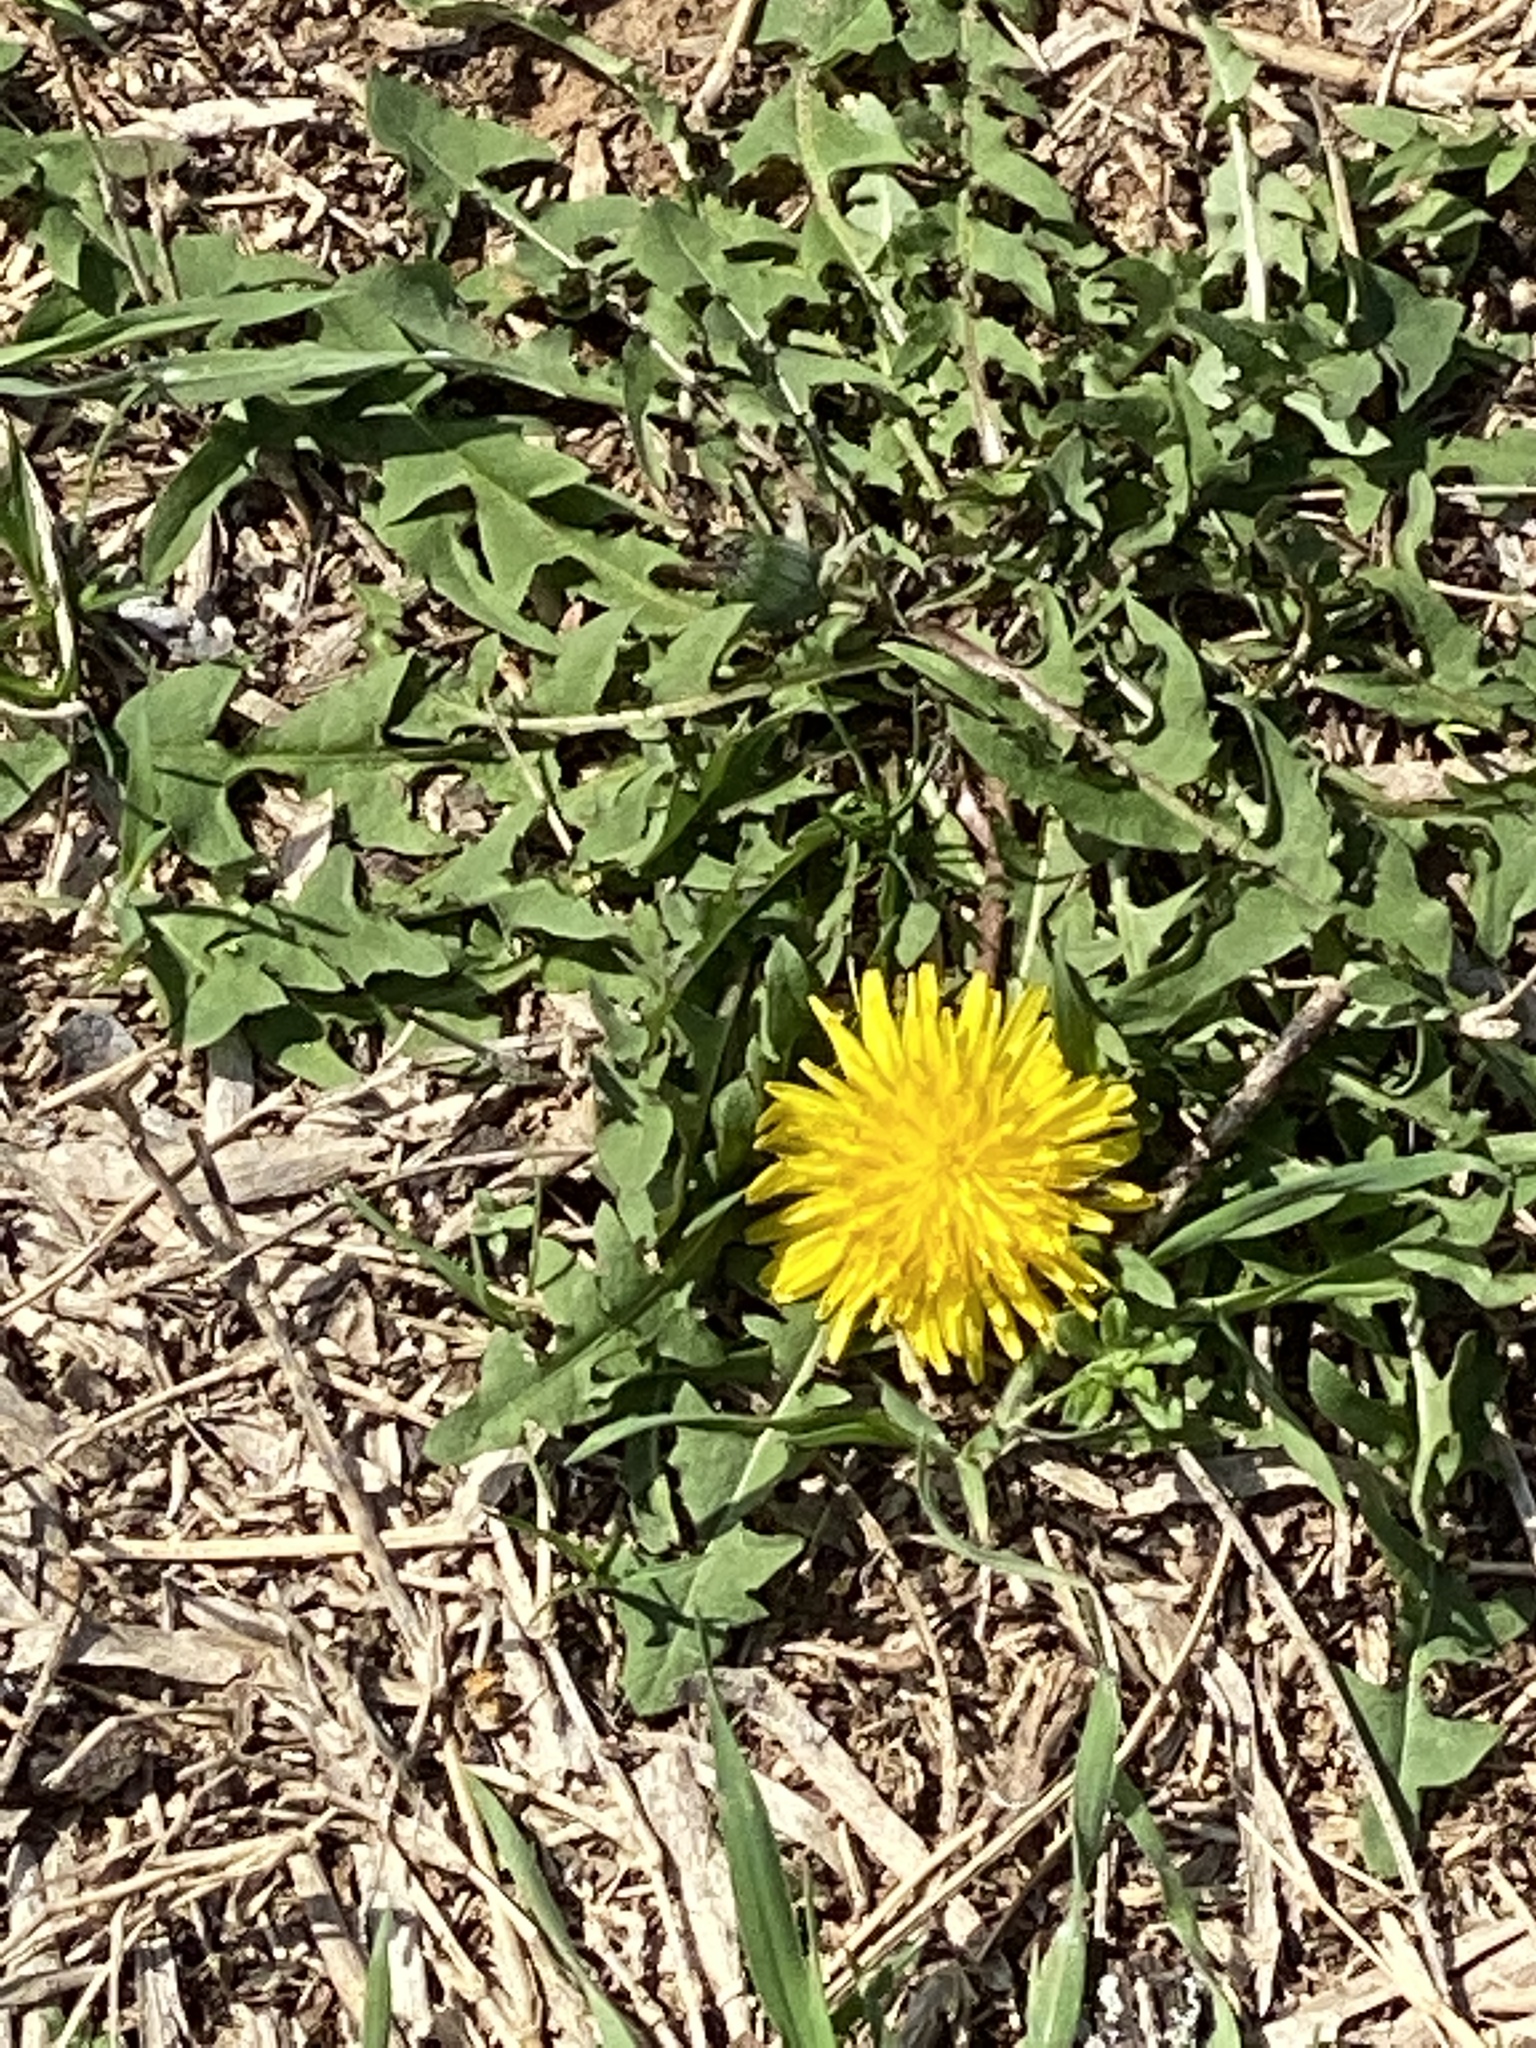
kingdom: Plantae
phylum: Tracheophyta
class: Magnoliopsida
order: Asterales
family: Asteraceae
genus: Taraxacum
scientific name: Taraxacum officinale
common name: Common dandelion
